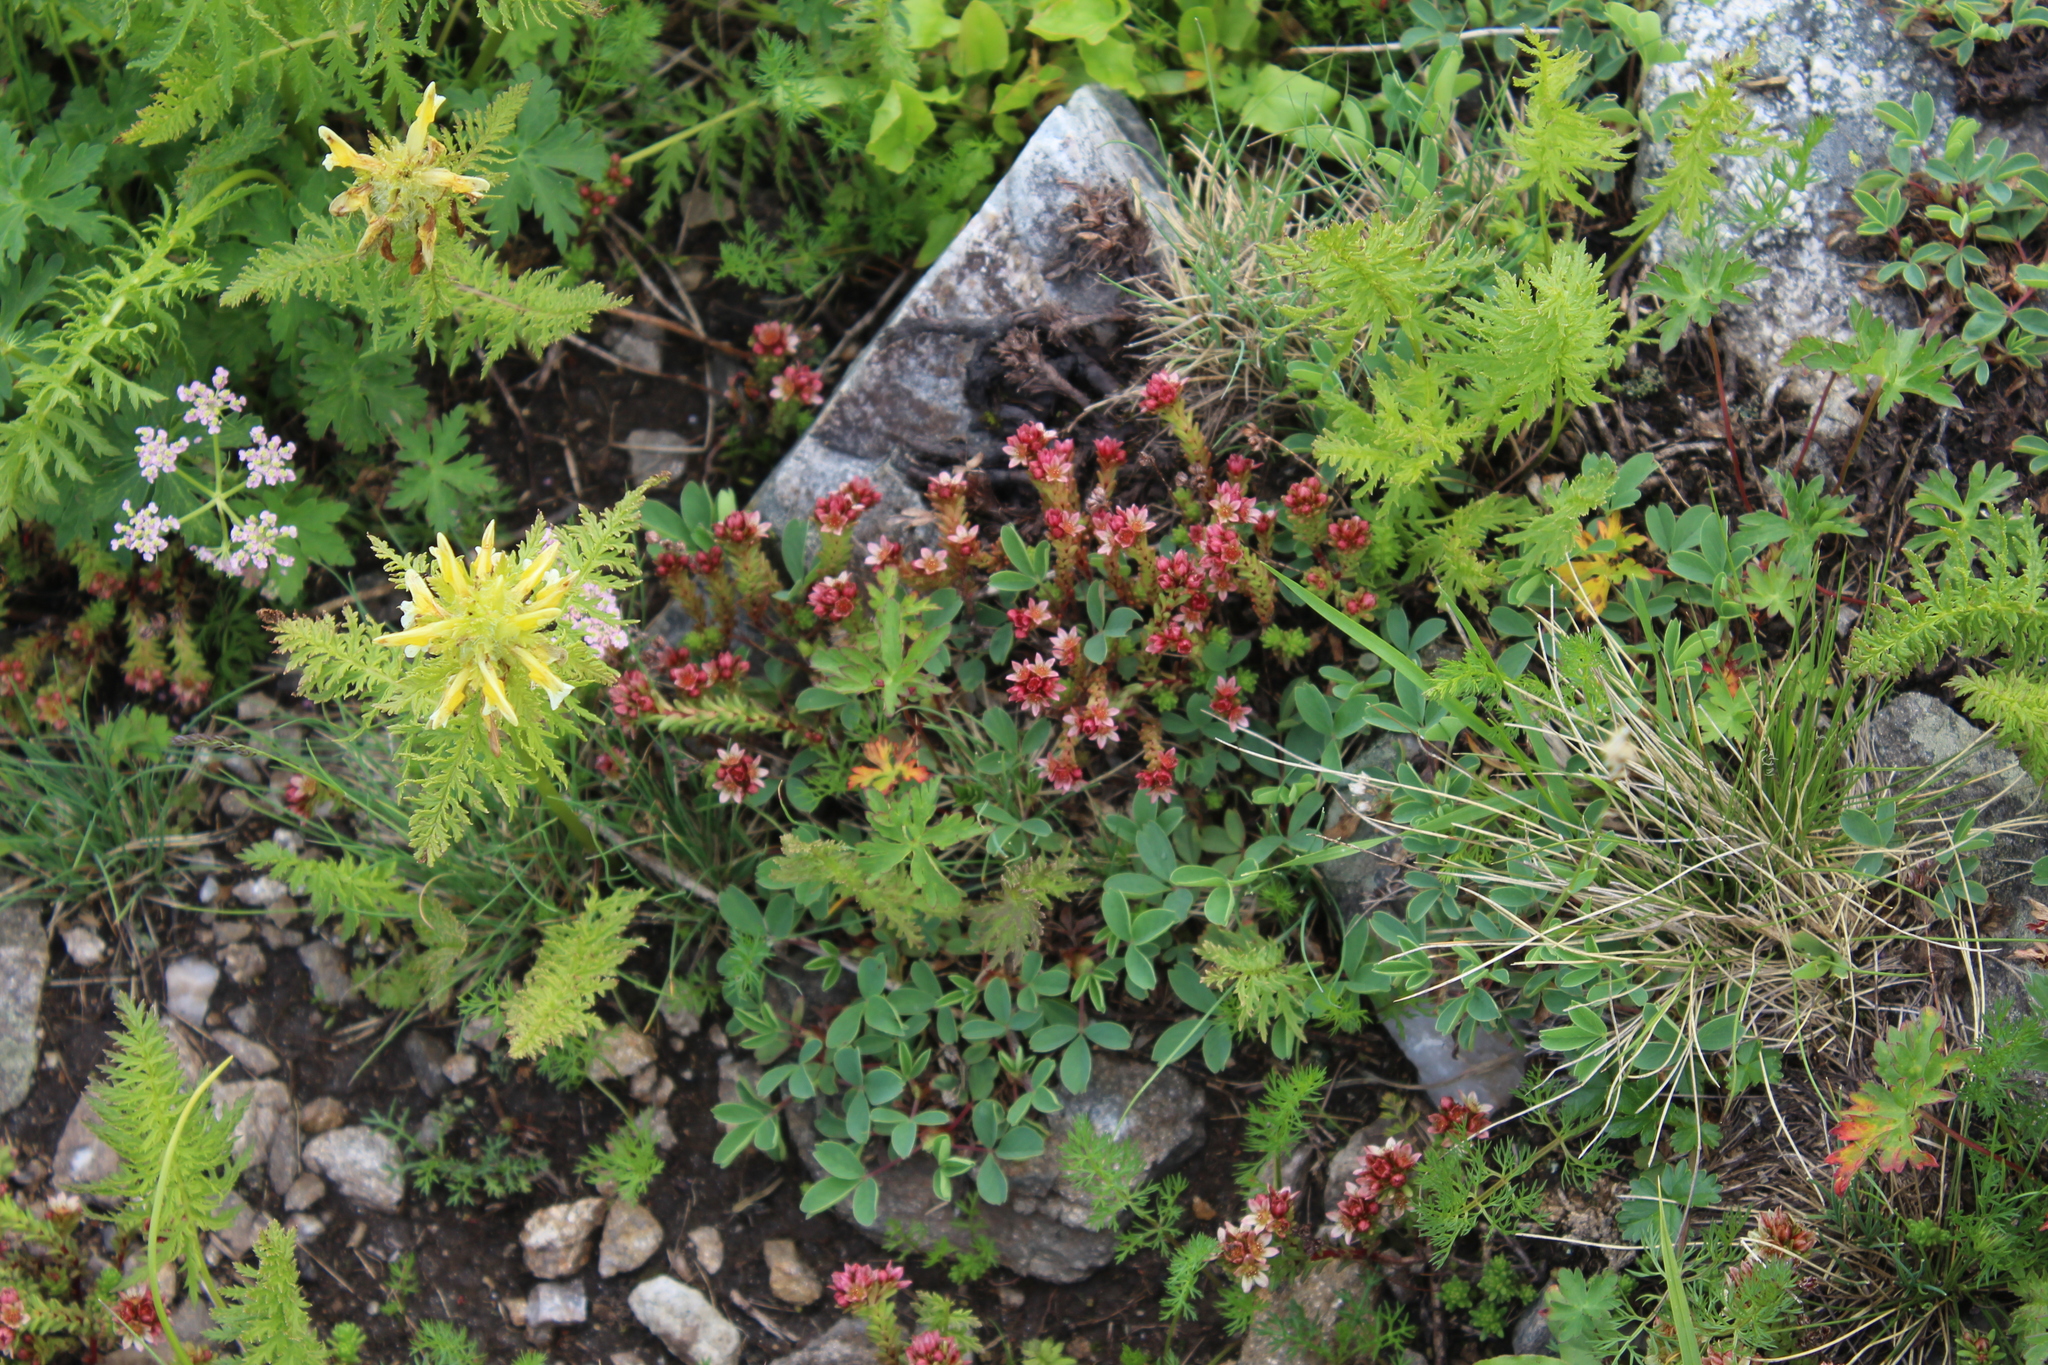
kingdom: Plantae
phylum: Tracheophyta
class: Magnoliopsida
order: Saxifragales
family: Crassulaceae
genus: Sedum
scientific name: Sedum tenellum
